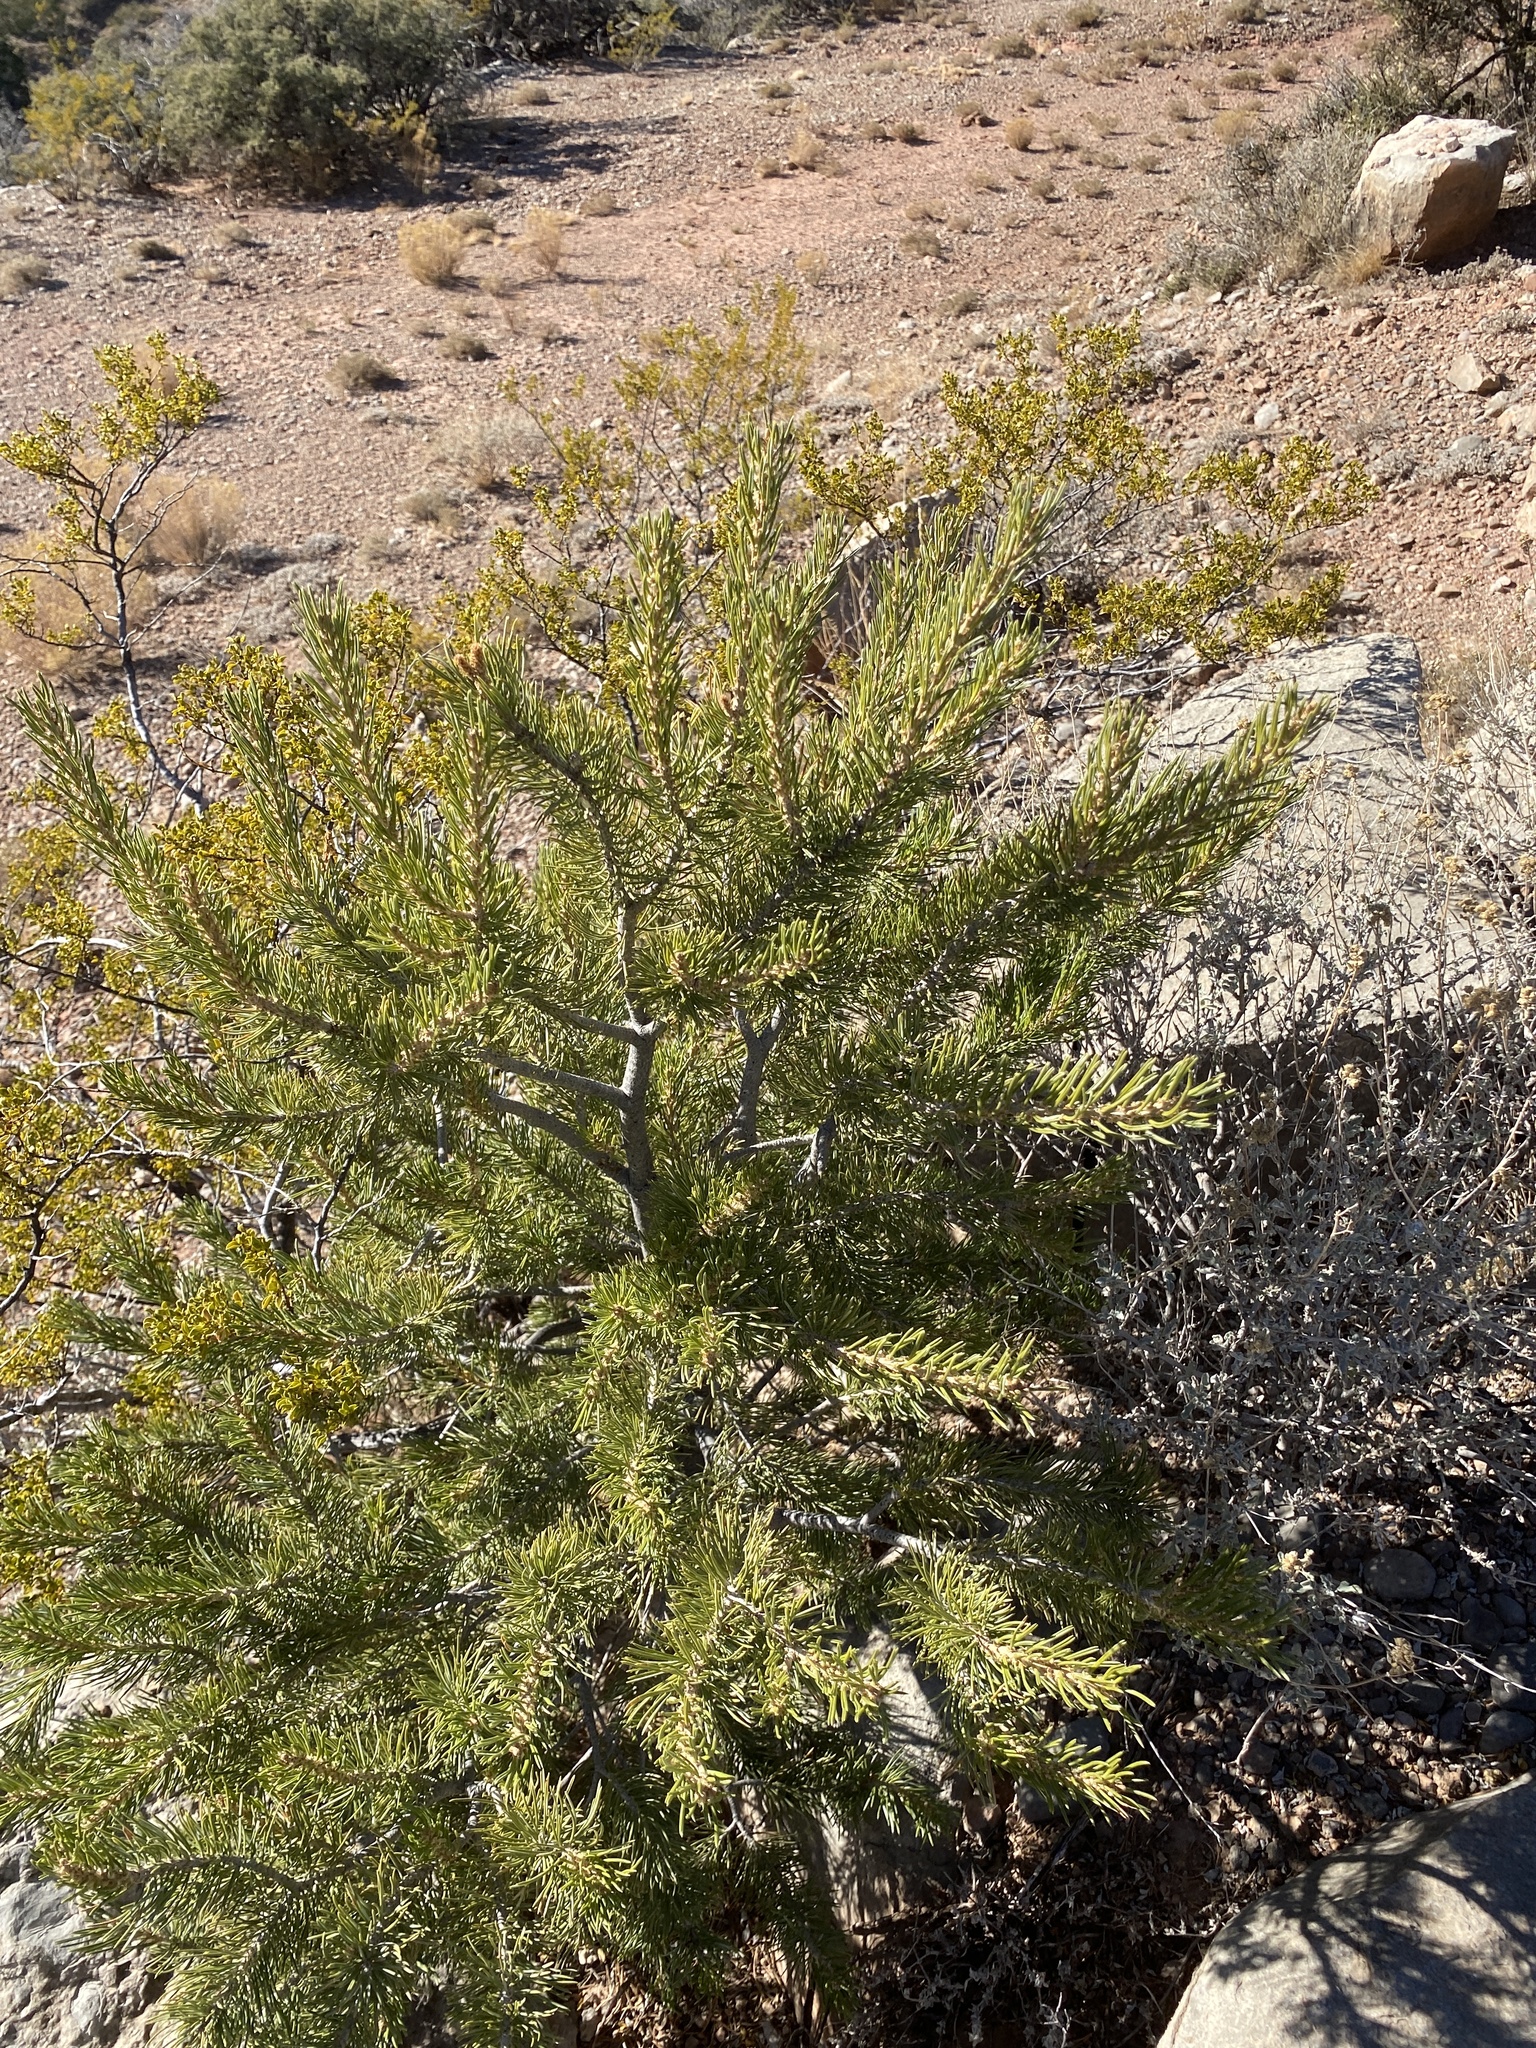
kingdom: Plantae
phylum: Tracheophyta
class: Pinopsida
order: Pinales
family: Pinaceae
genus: Pinus
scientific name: Pinus edulis
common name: Colorado pinyon
